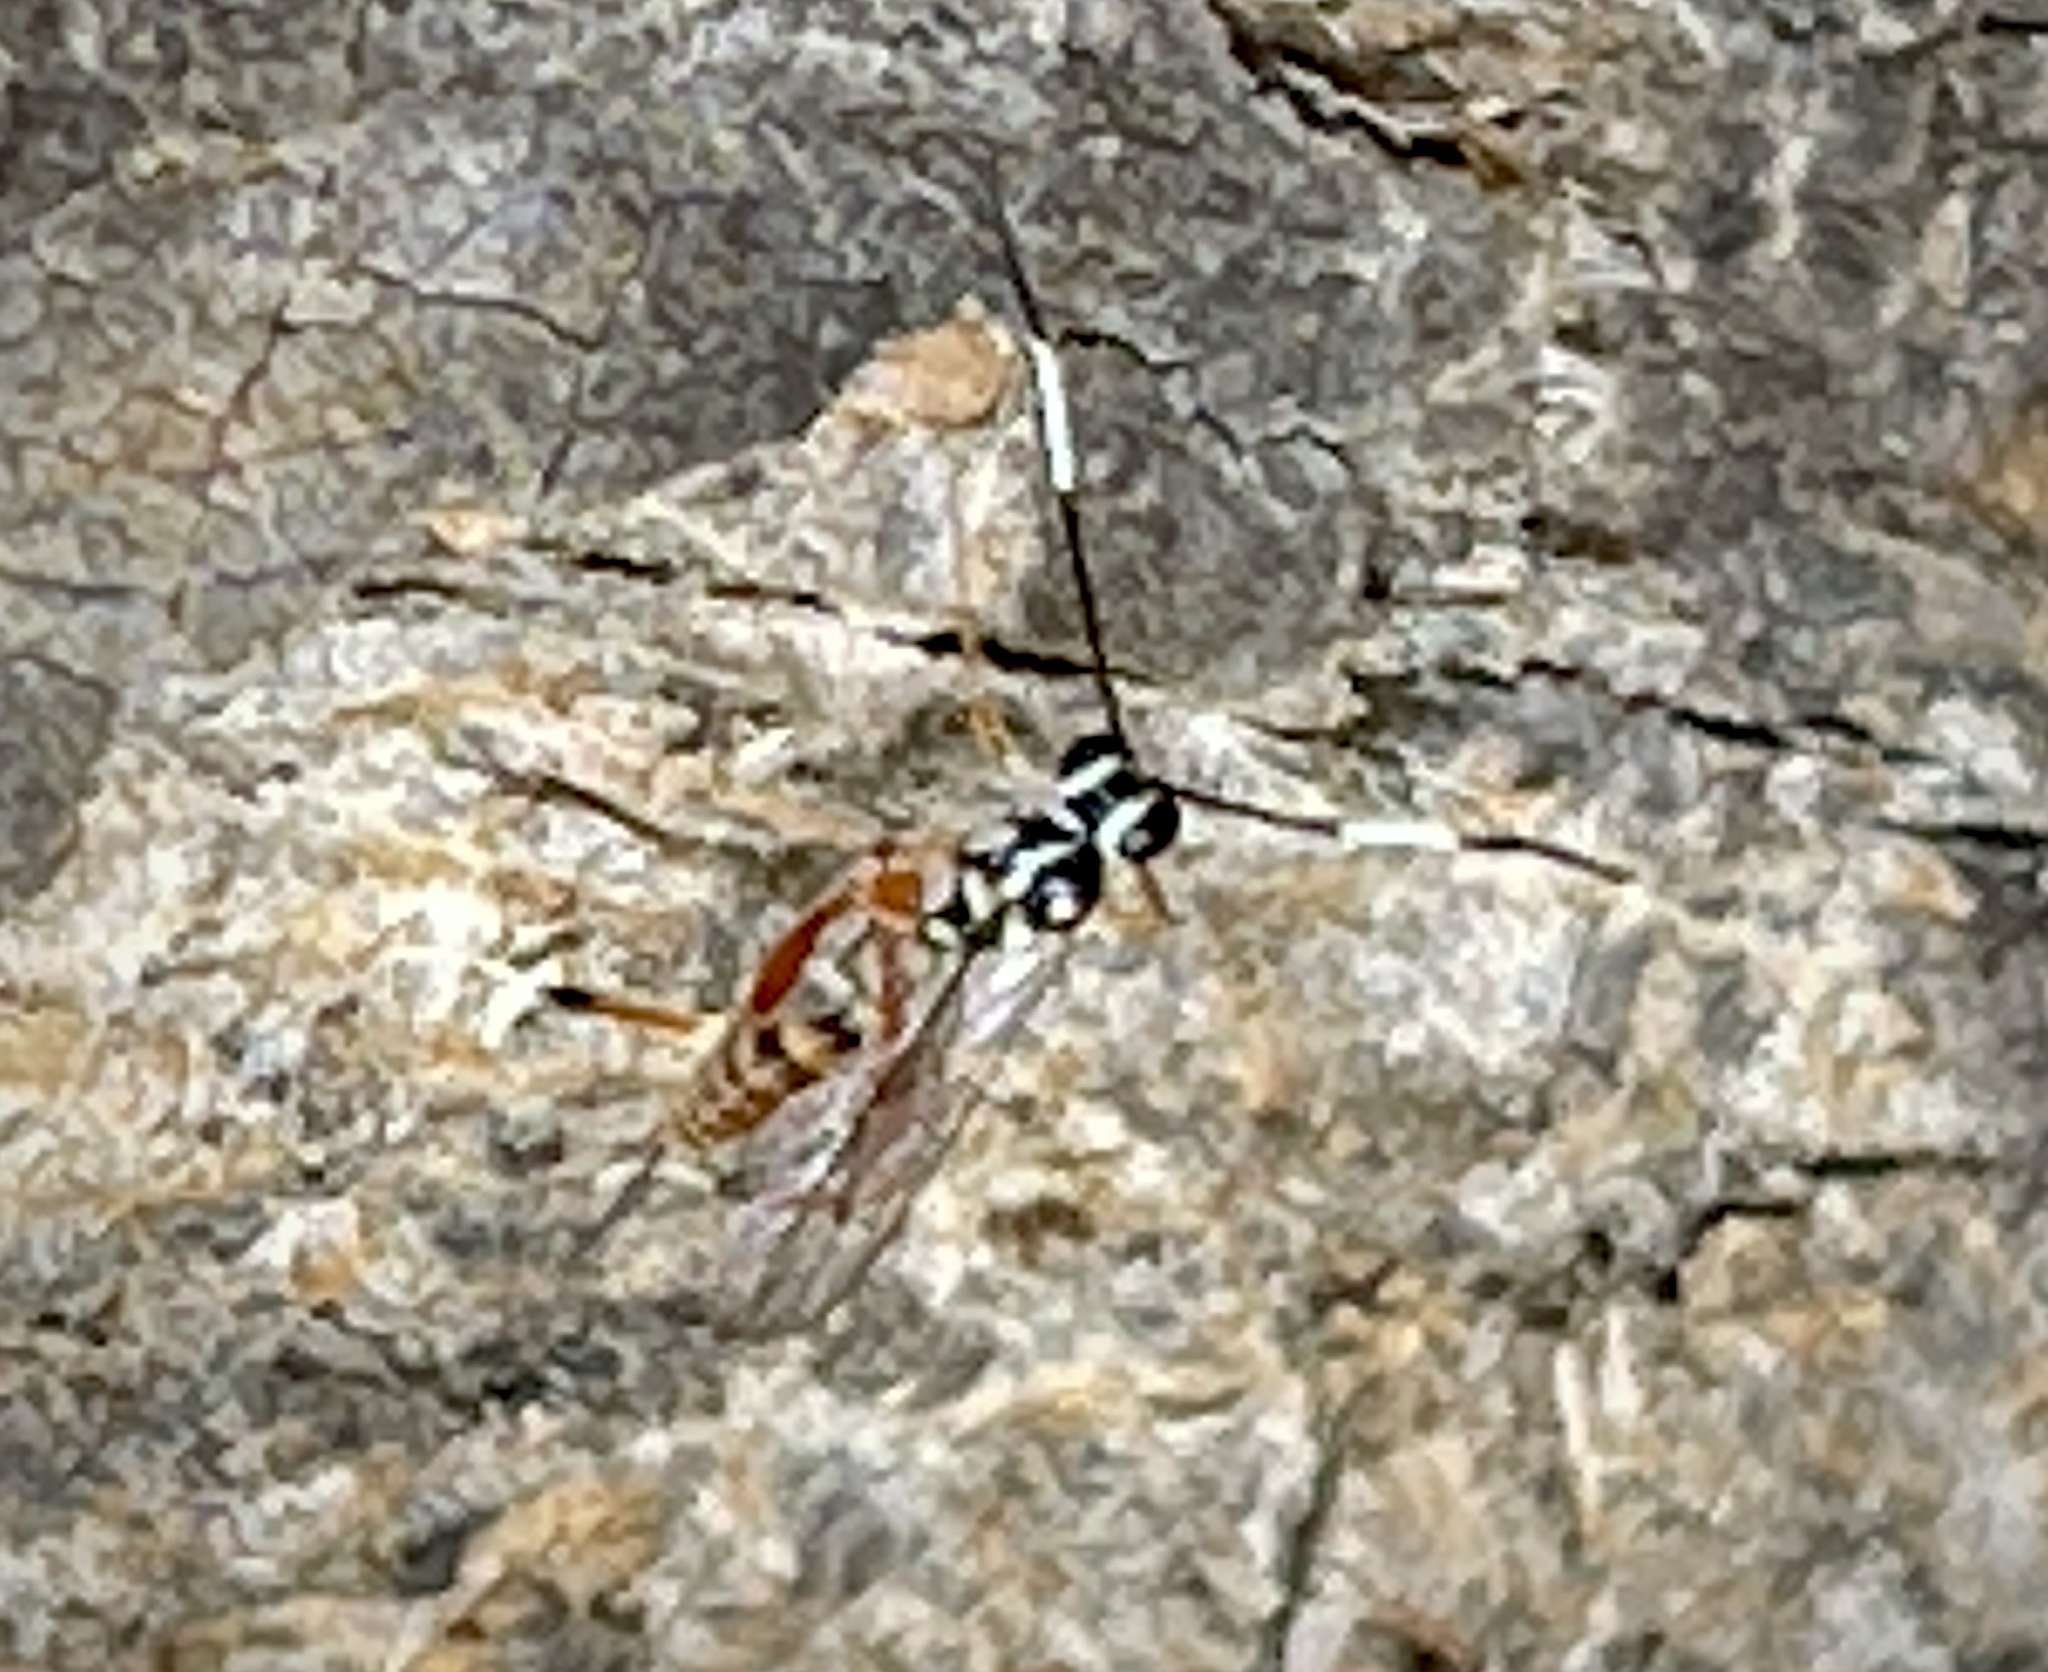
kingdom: Animalia
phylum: Arthropoda
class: Insecta
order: Hymenoptera
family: Ichneumonidae
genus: Messatoporus
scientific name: Messatoporus rufiventris
